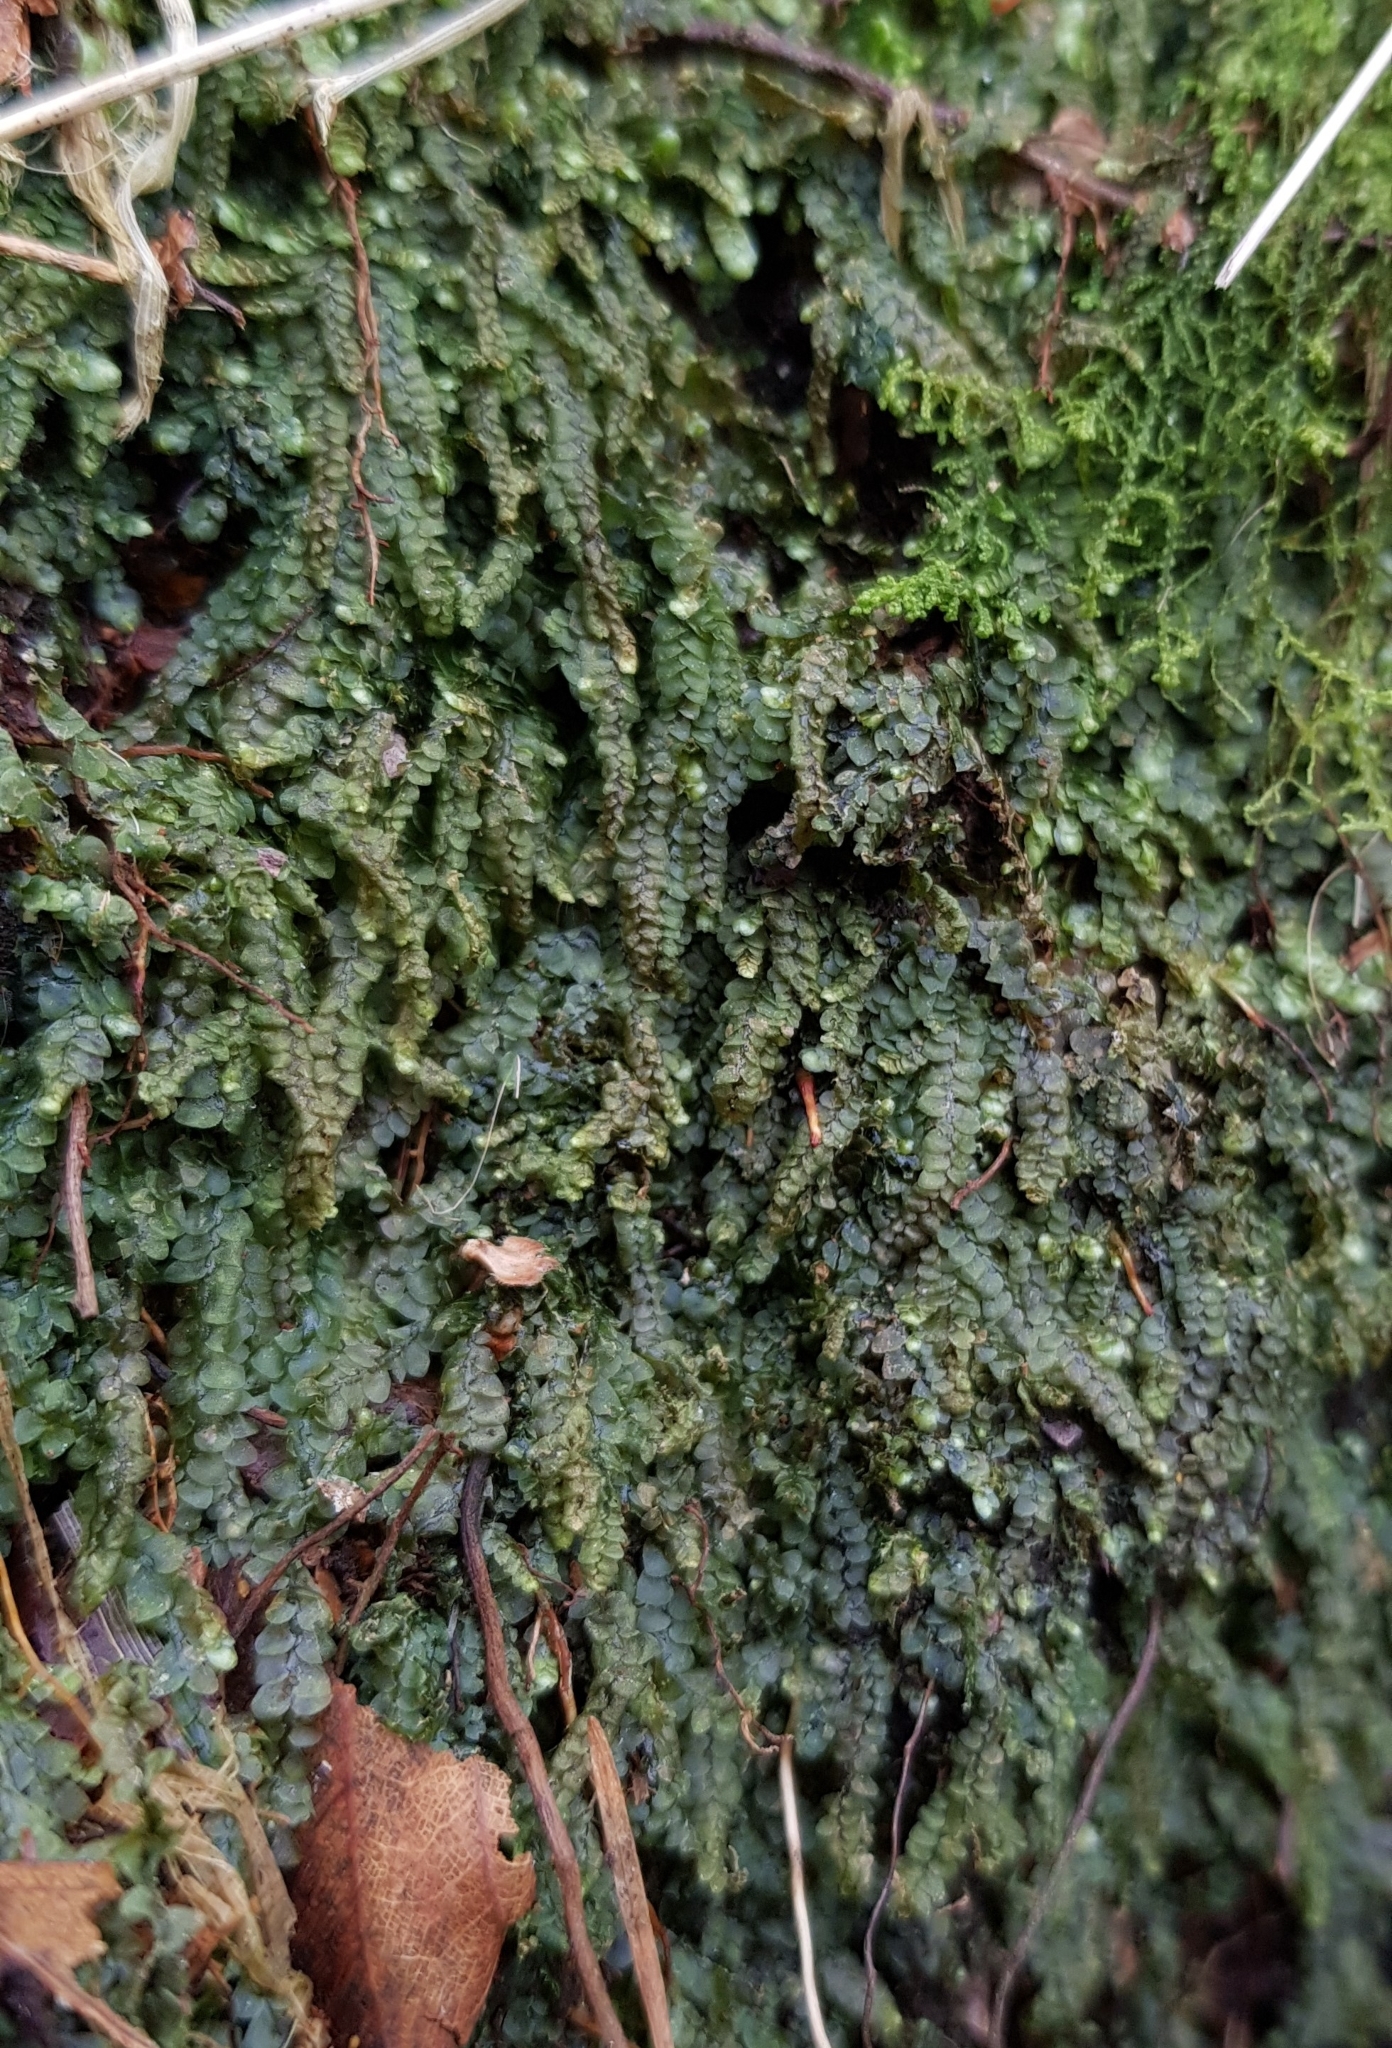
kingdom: Plantae
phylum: Marchantiophyta
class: Jungermanniopsida
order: Jungermanniales
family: Calypogeiaceae
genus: Calypogeia
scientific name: Calypogeia muelleriana
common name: Mueller s pouchwort
